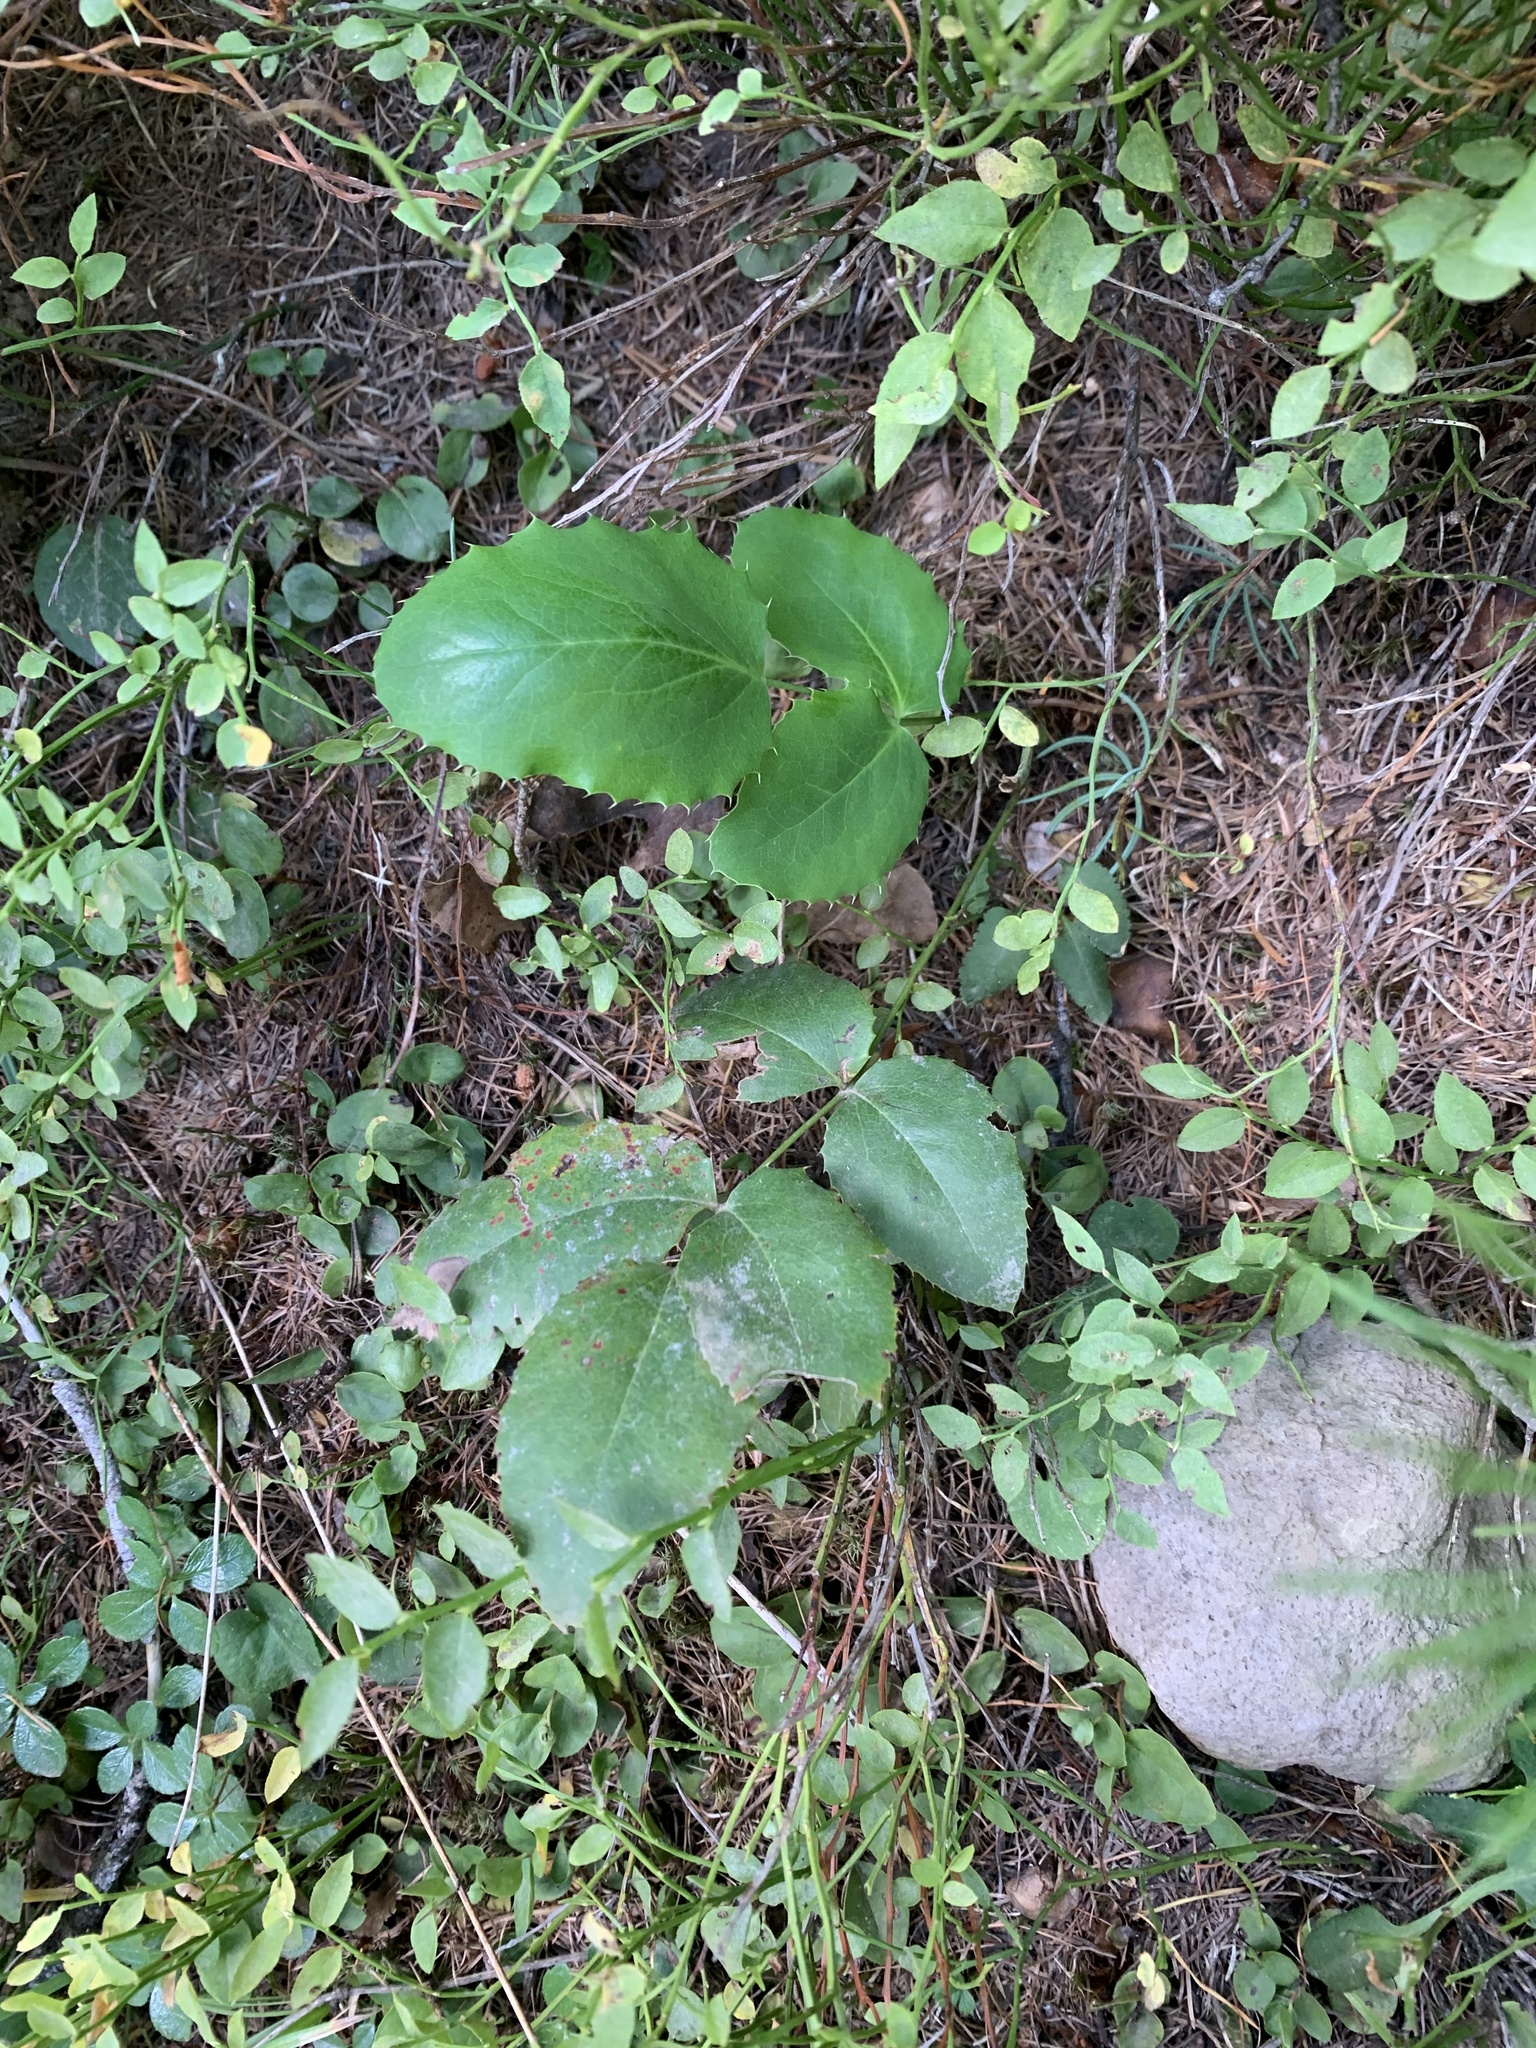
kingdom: Plantae
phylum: Tracheophyta
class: Magnoliopsida
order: Ranunculales
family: Berberidaceae
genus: Mahonia
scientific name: Mahonia repens
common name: Creeping oregon-grape
